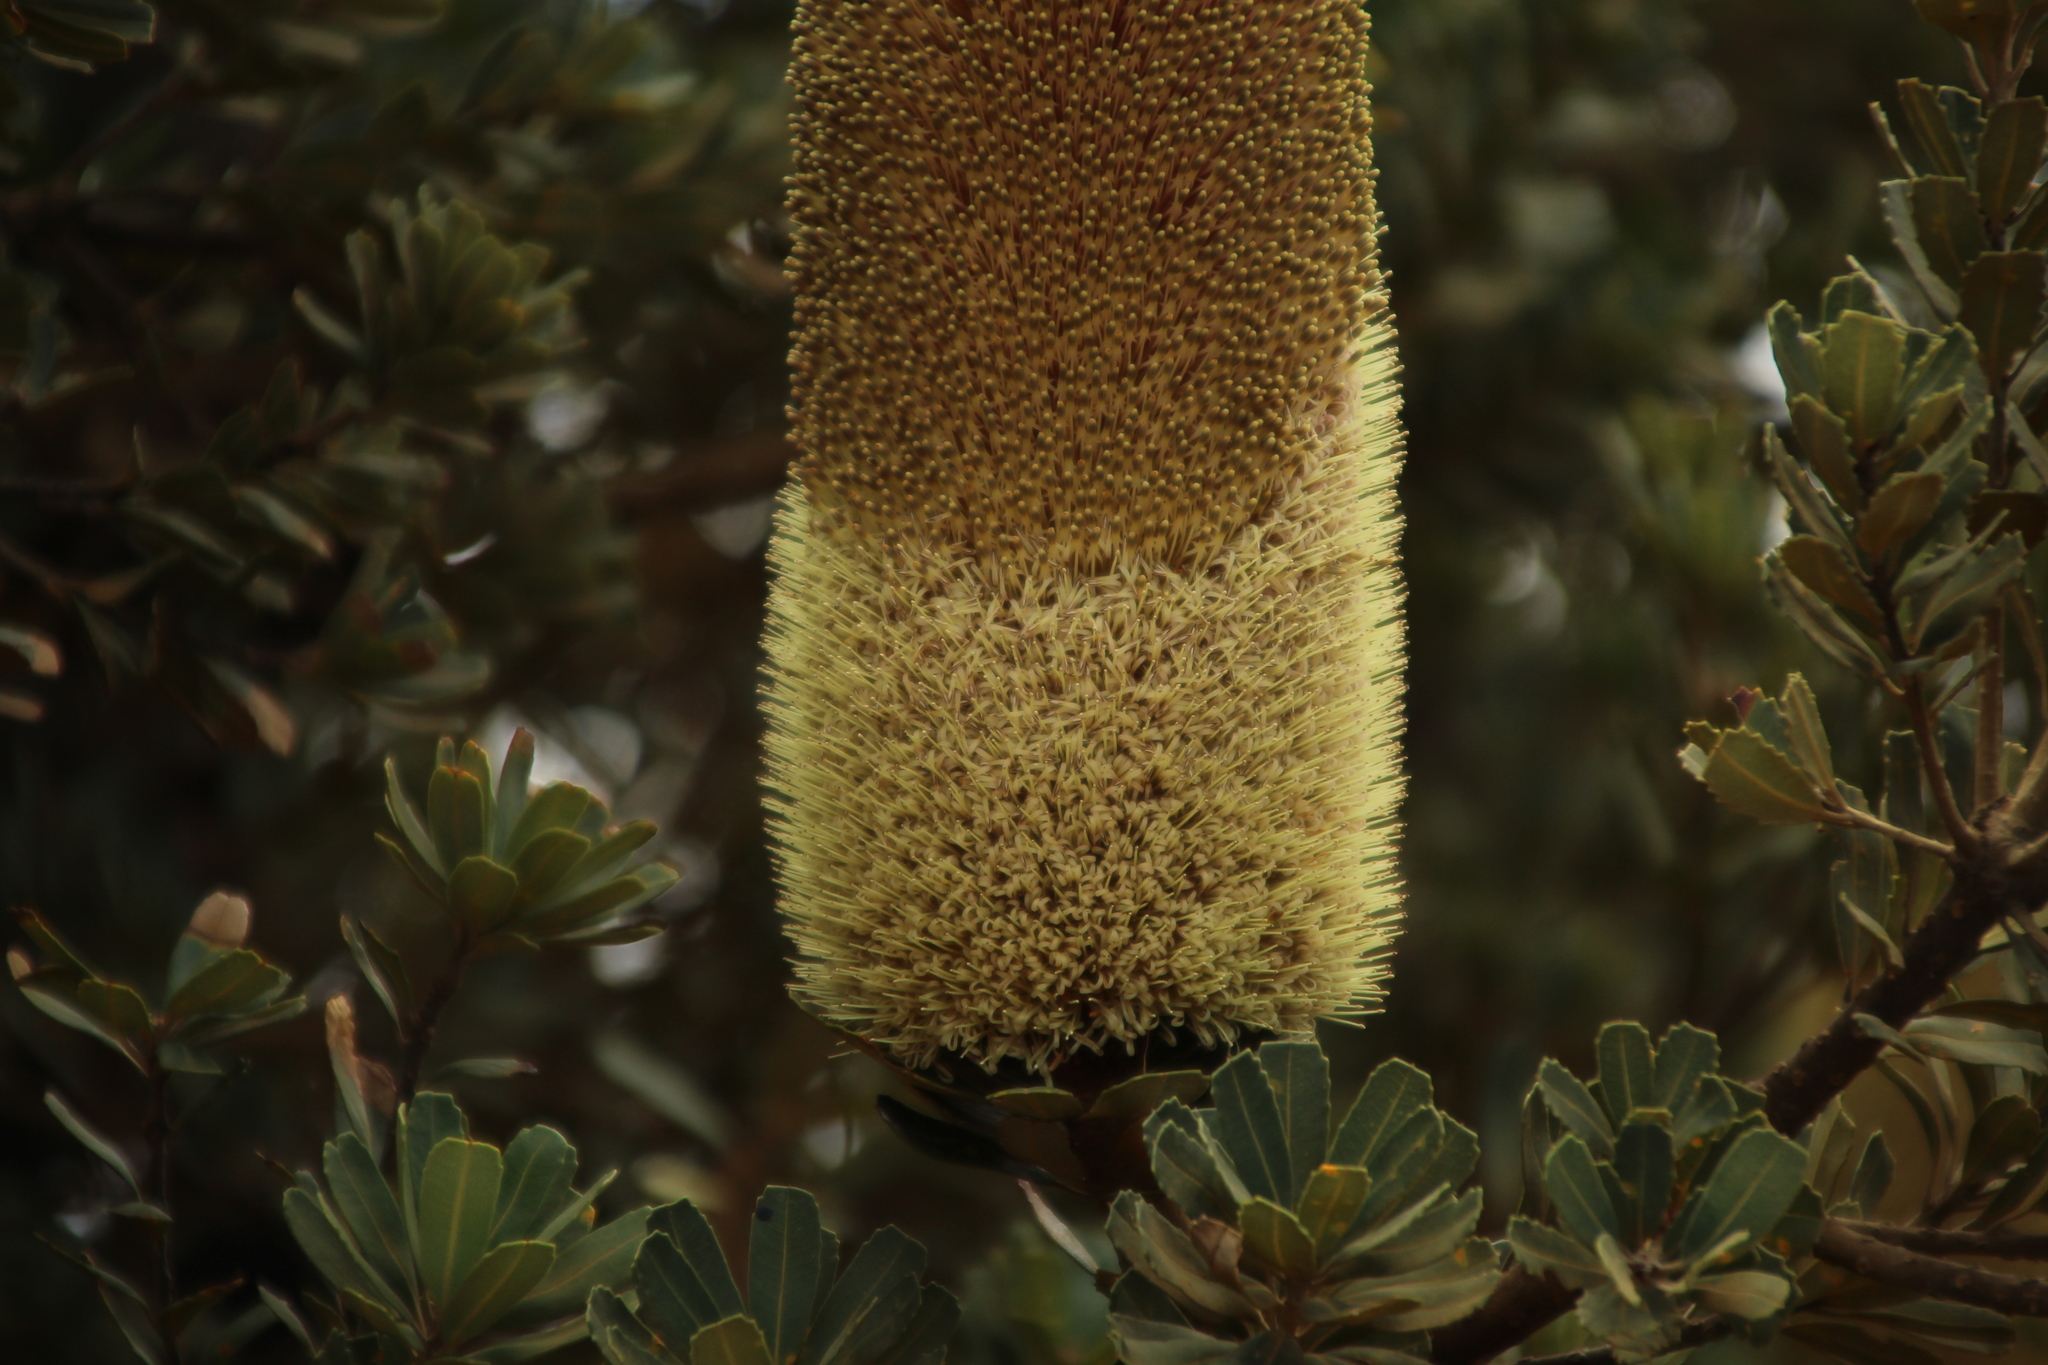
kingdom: Plantae
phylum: Tracheophyta
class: Magnoliopsida
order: Proteales
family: Proteaceae
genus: Banksia
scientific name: Banksia praemorsa
